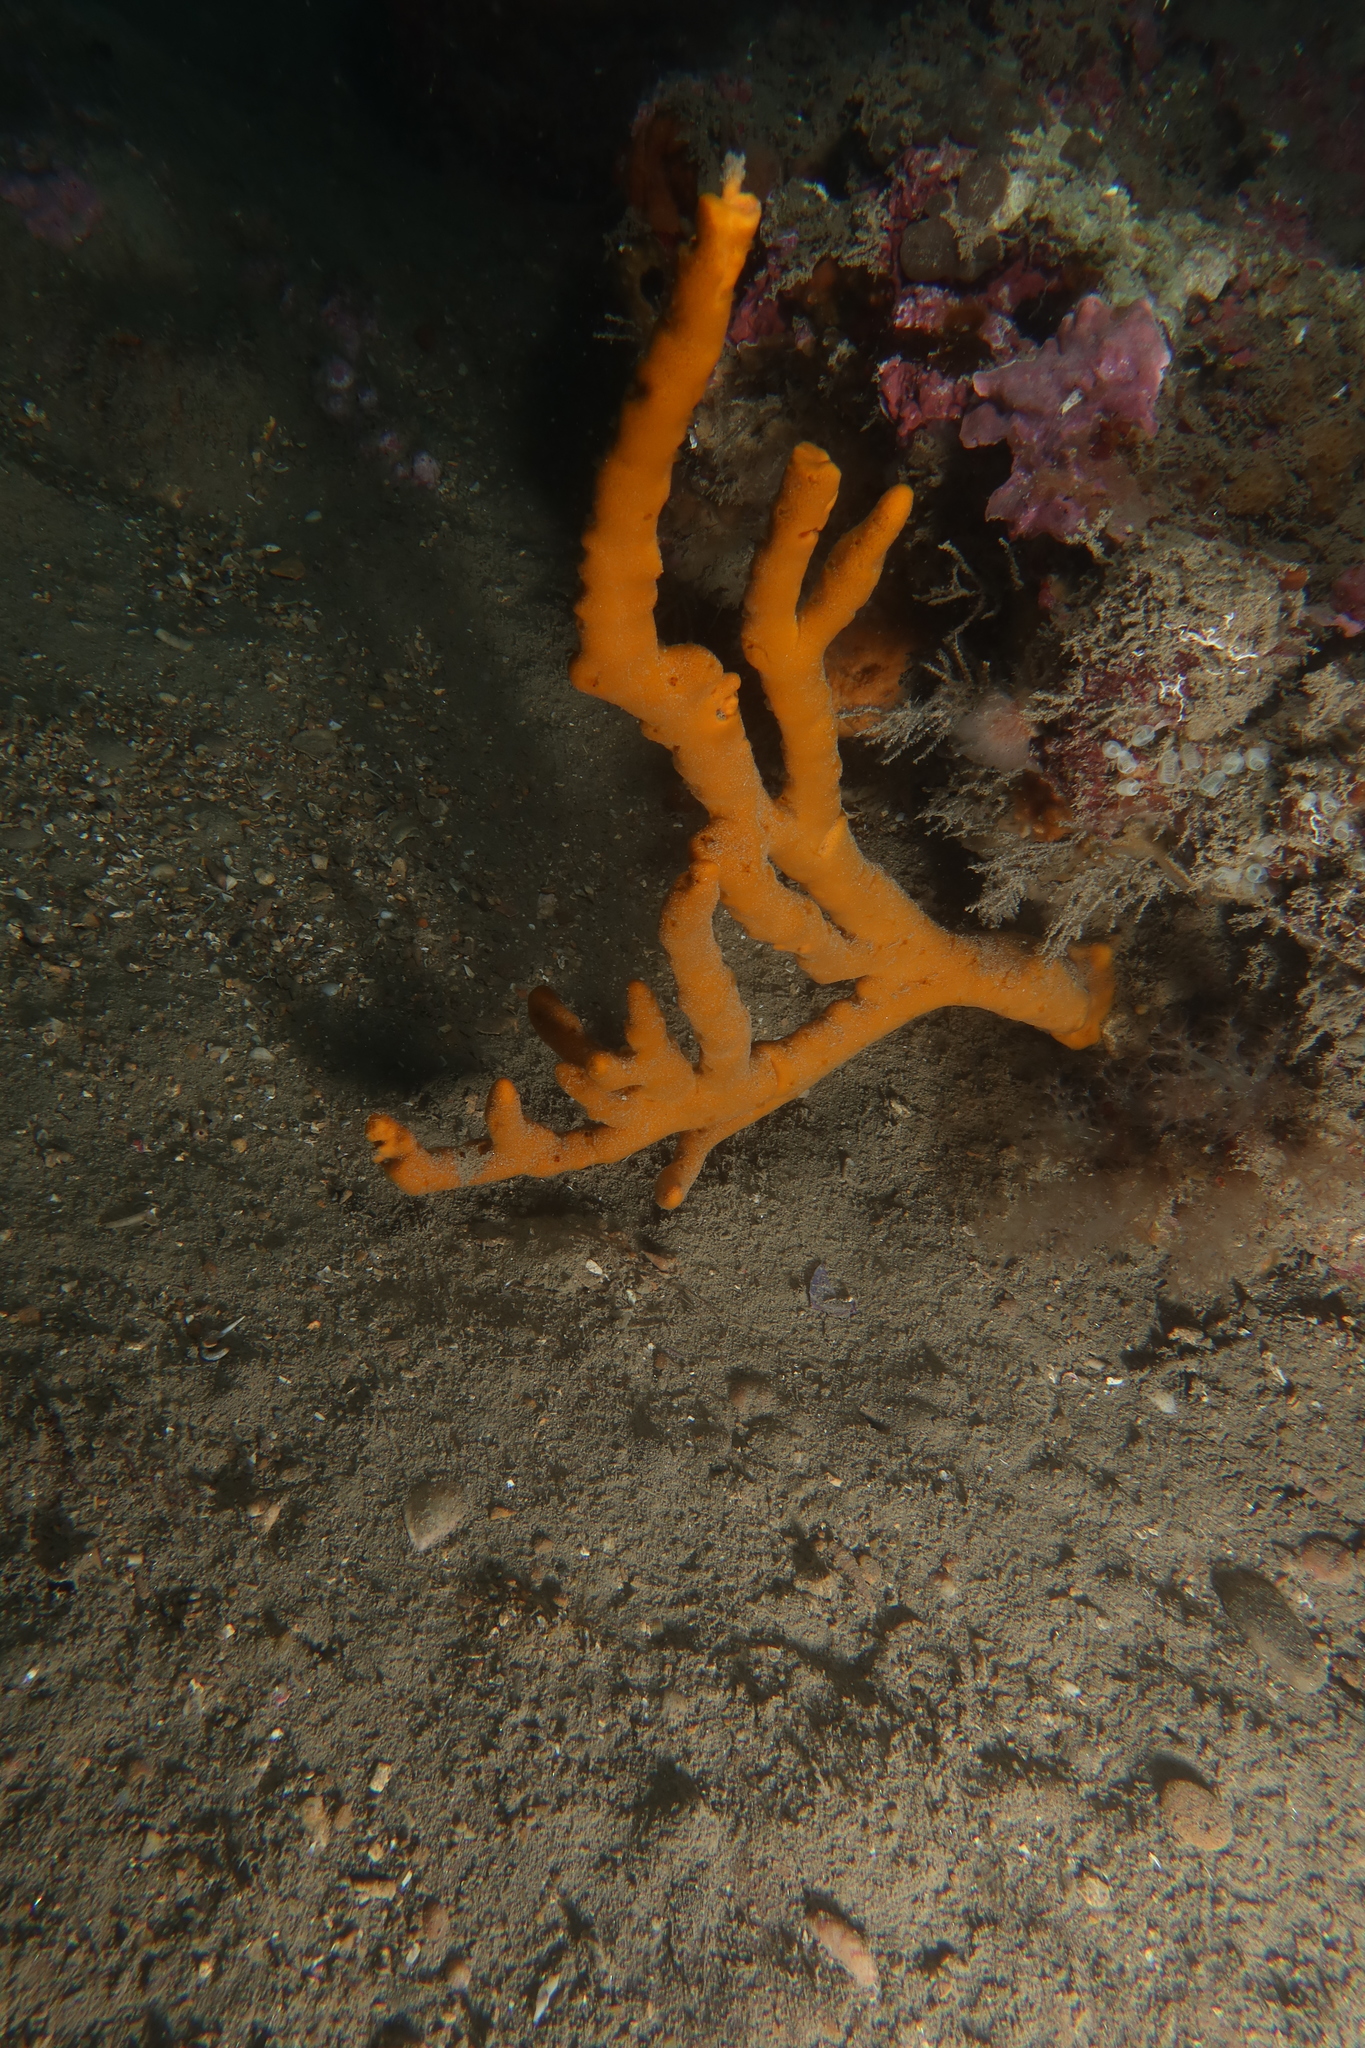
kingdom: Animalia
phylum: Porifera
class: Demospongiae
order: Axinellida
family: Axinellidae
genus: Axinella
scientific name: Axinella polypoides
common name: Common antlers sponge
